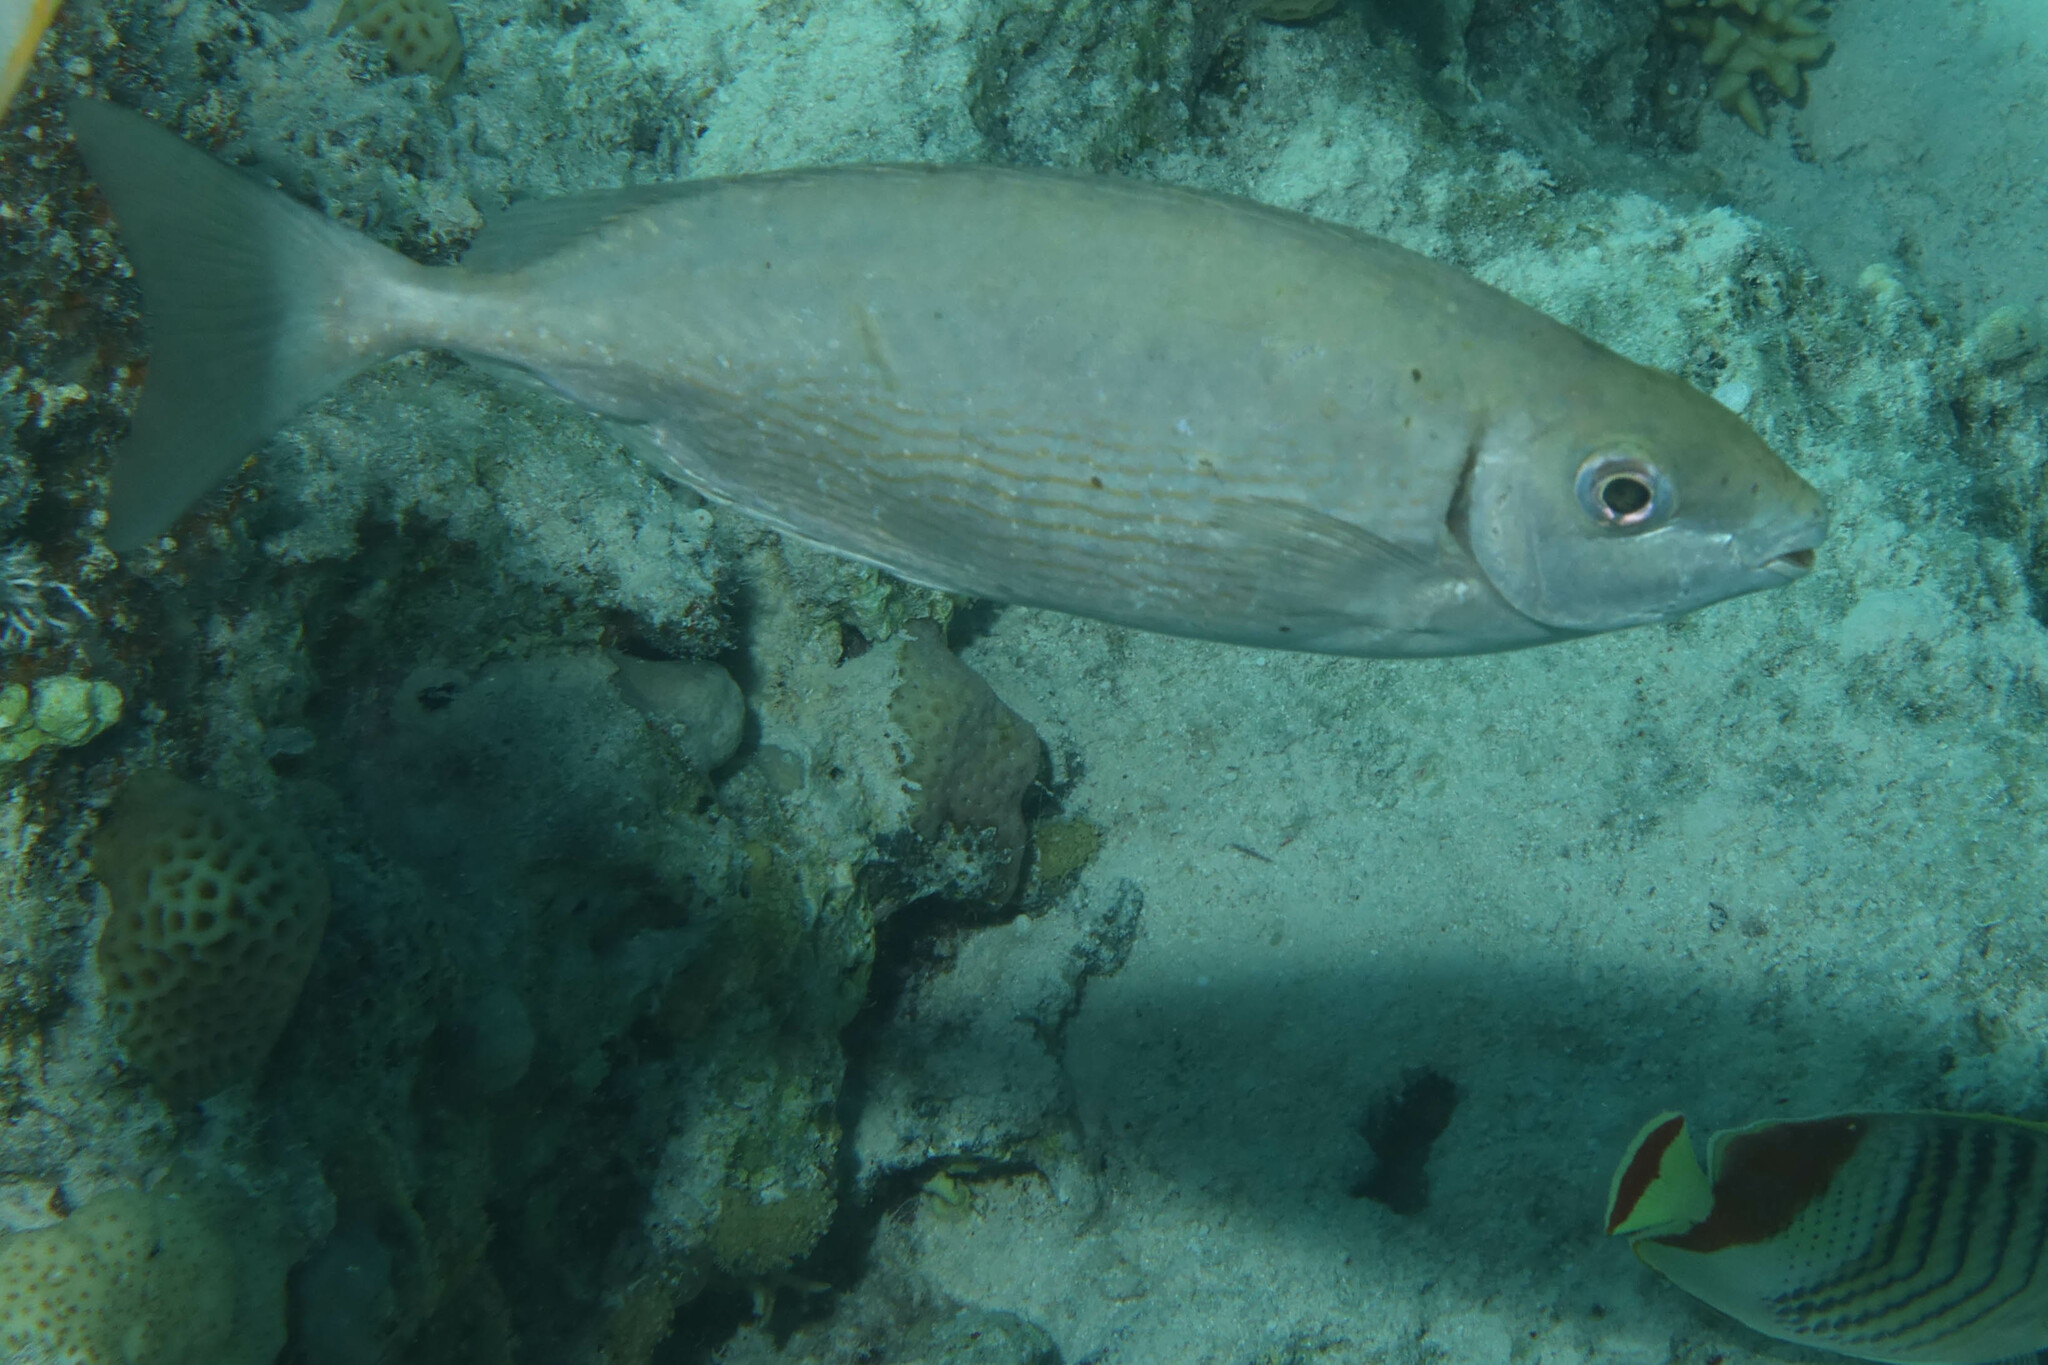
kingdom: Animalia
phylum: Chordata
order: Perciformes
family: Siganidae
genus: Siganus
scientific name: Siganus rivulatus
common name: Marbled spinefoot
